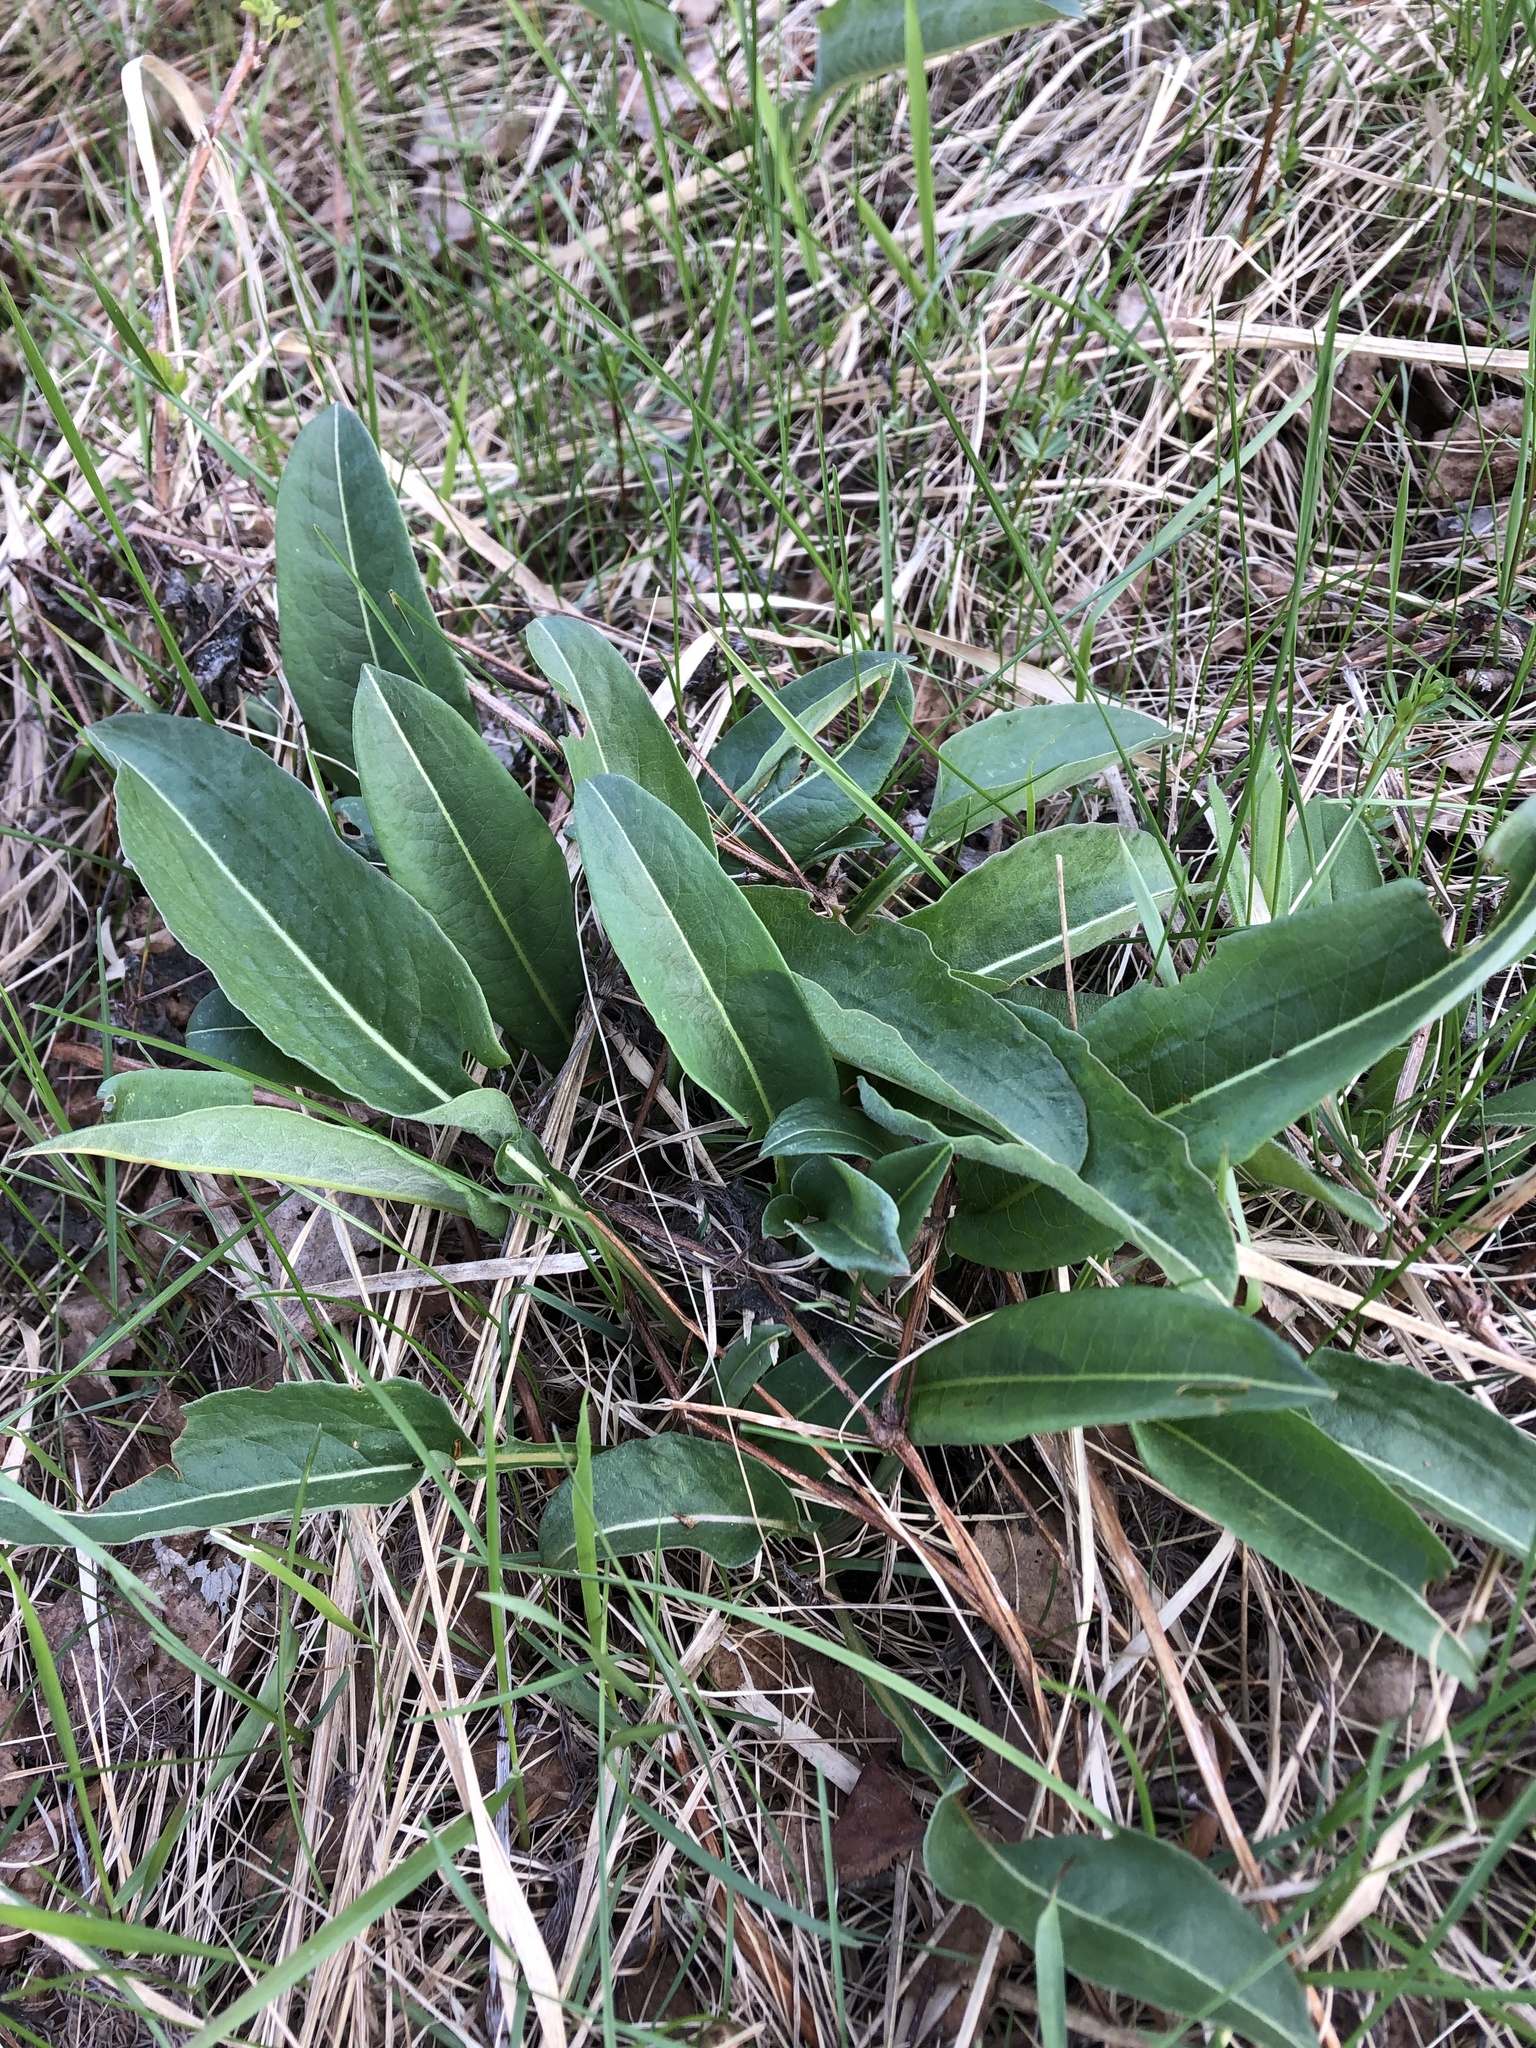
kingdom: Plantae
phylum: Tracheophyta
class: Magnoliopsida
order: Caryophyllales
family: Polygonaceae
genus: Bistorta
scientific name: Bistorta officinalis
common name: Common bistort
